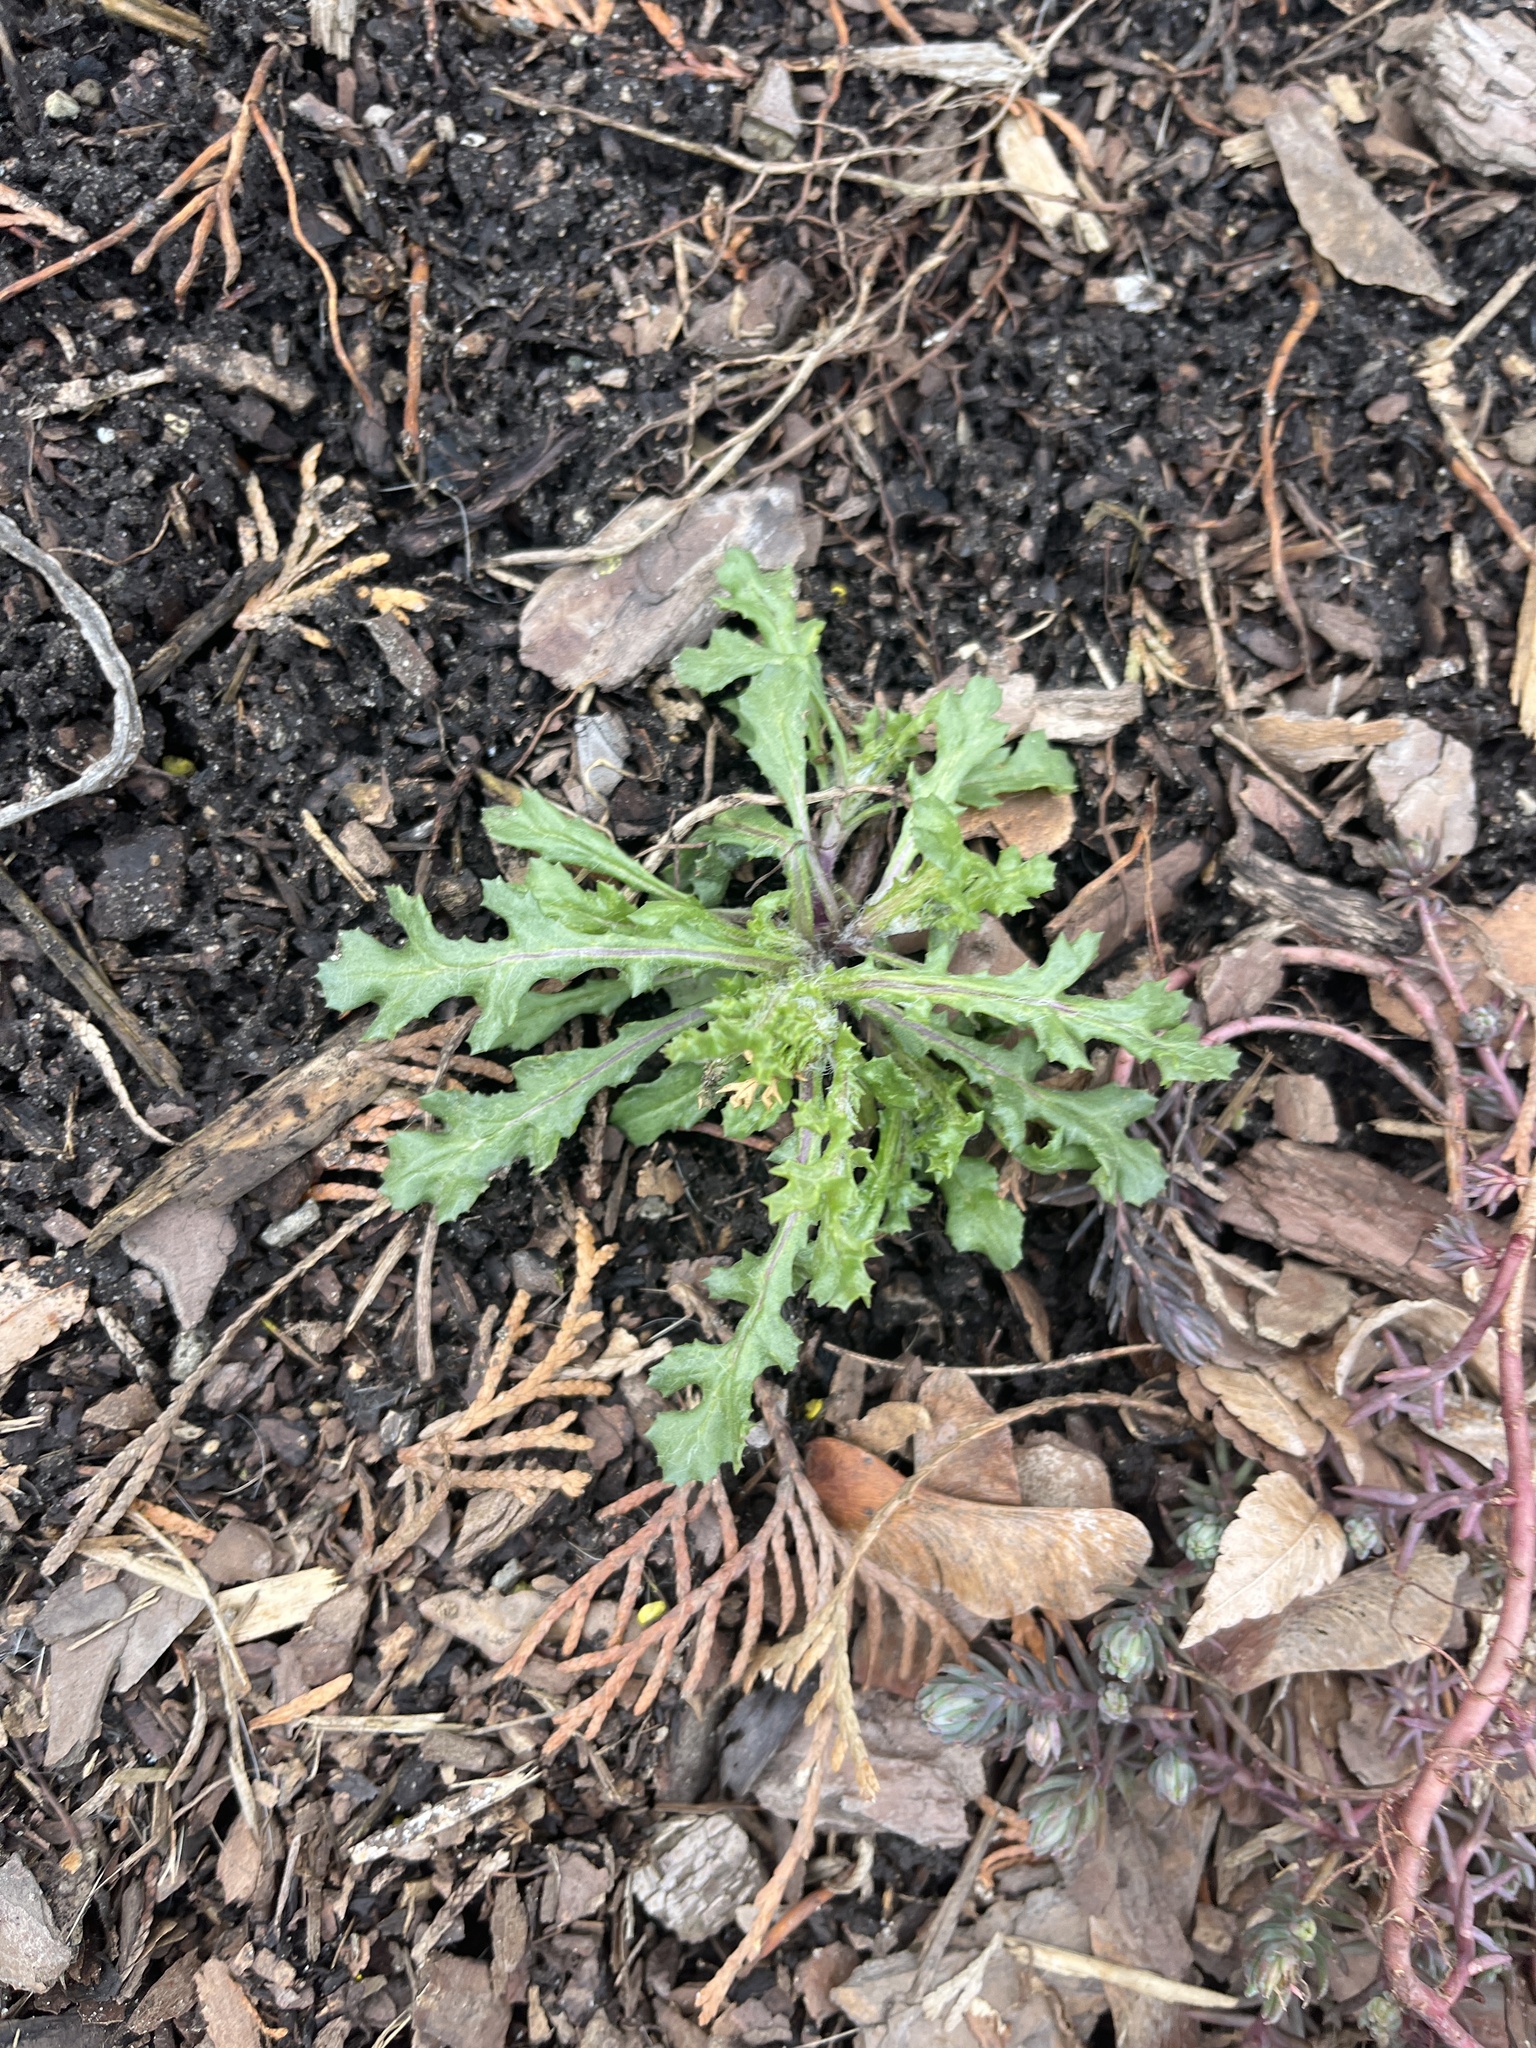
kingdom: Plantae
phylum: Tracheophyta
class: Magnoliopsida
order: Asterales
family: Asteraceae
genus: Senecio
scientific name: Senecio vulgaris
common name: Old-man-in-the-spring
